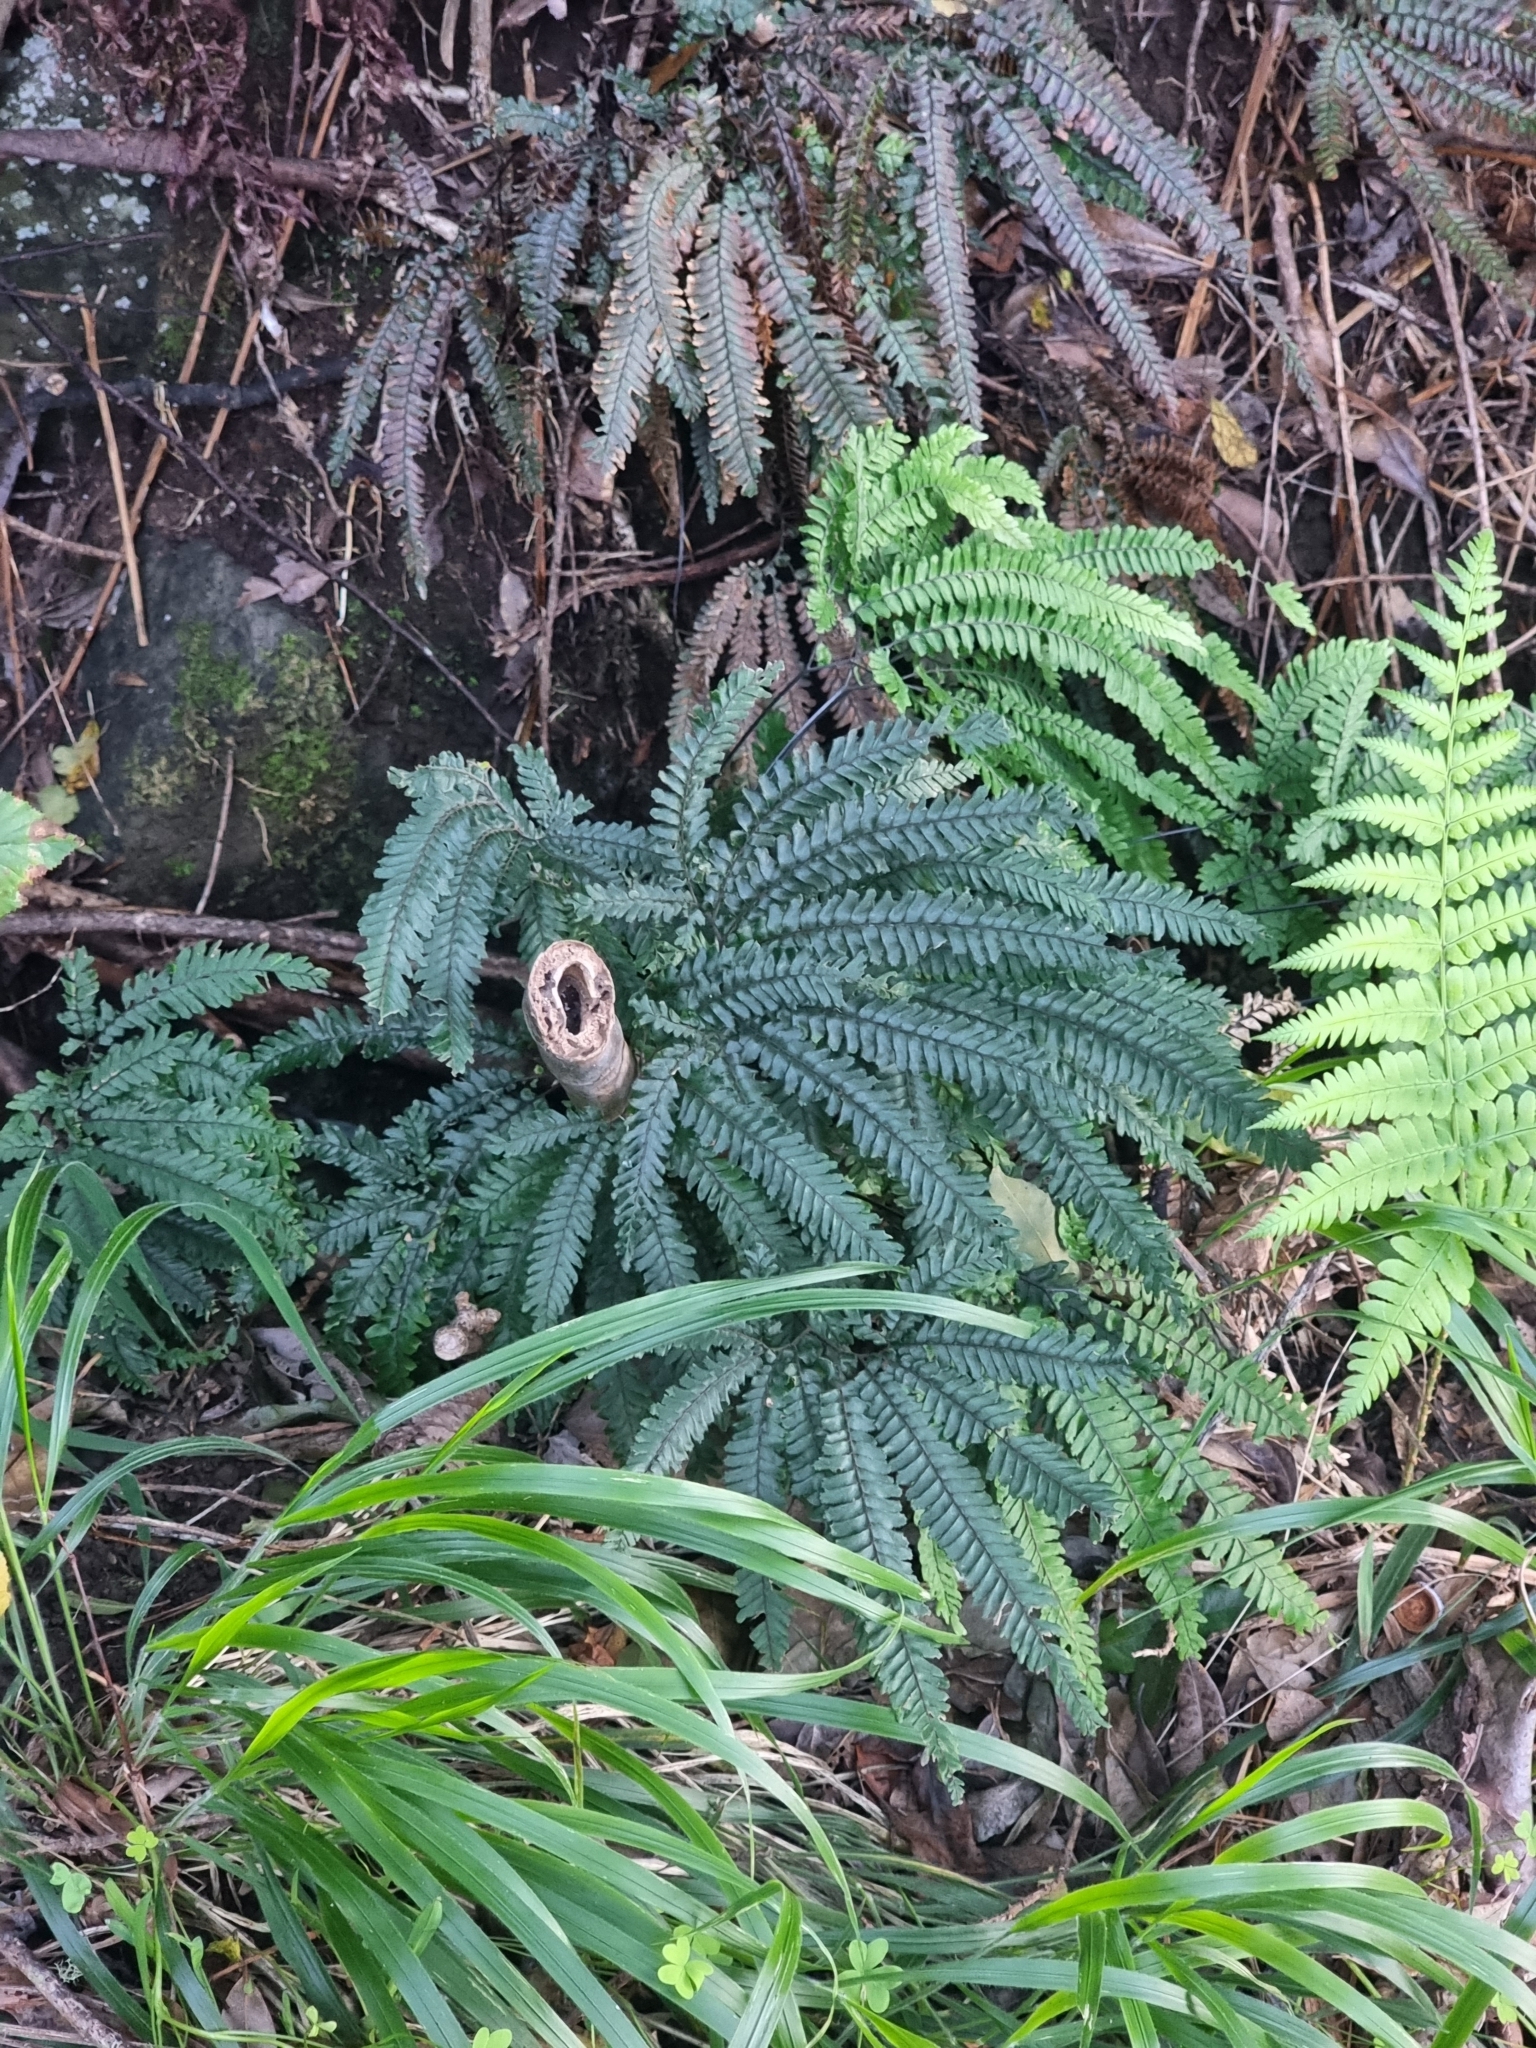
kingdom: Plantae
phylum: Tracheophyta
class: Polypodiopsida
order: Polypodiales
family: Pteridaceae
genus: Adiantum
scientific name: Adiantum hispidulum
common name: Rough maidenhair
